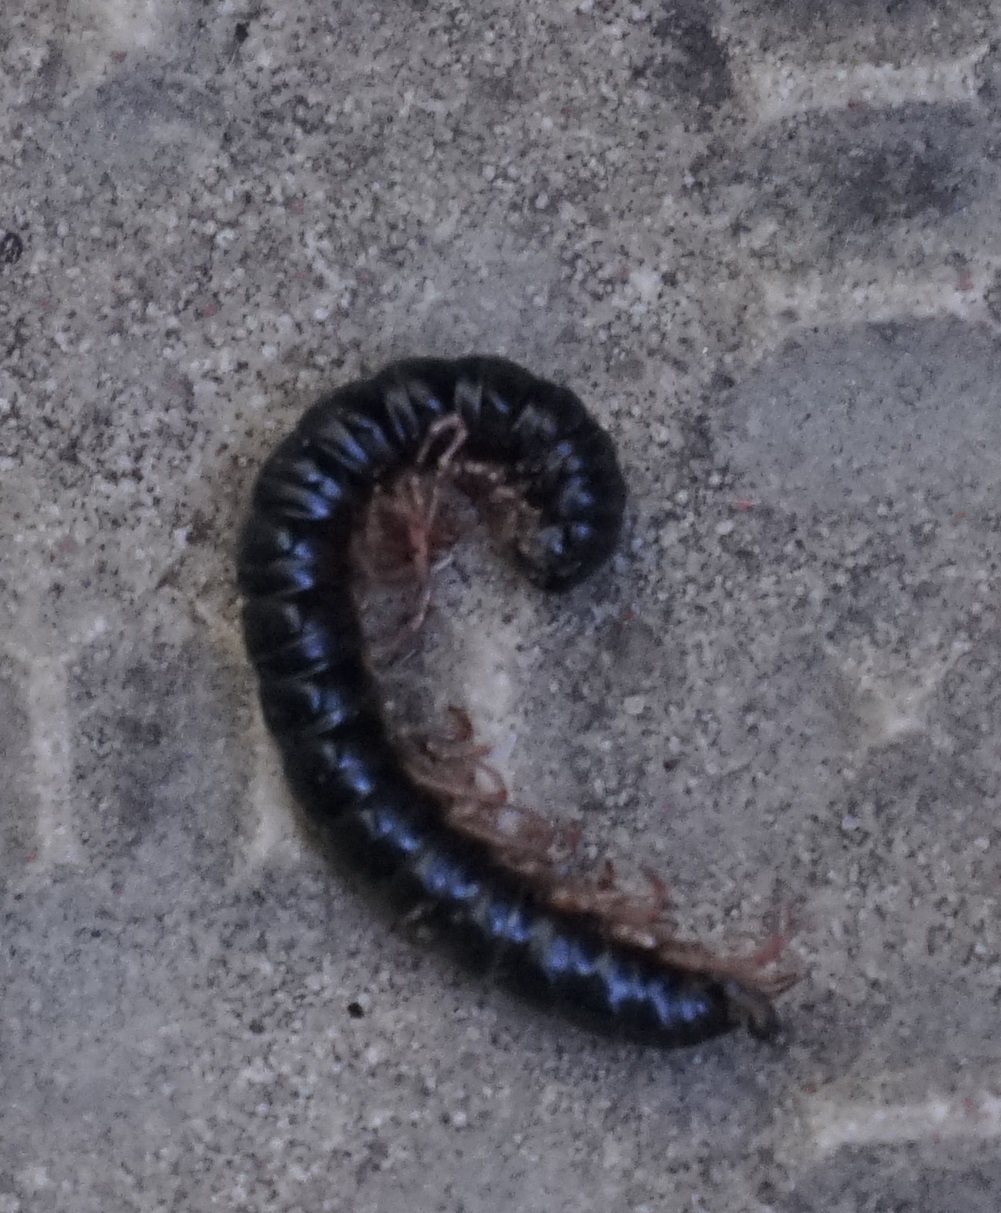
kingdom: Animalia
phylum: Arthropoda
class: Diplopoda
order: Polydesmida
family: Paradoxosomatidae
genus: Heterocladosoma
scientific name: Heterocladosoma
